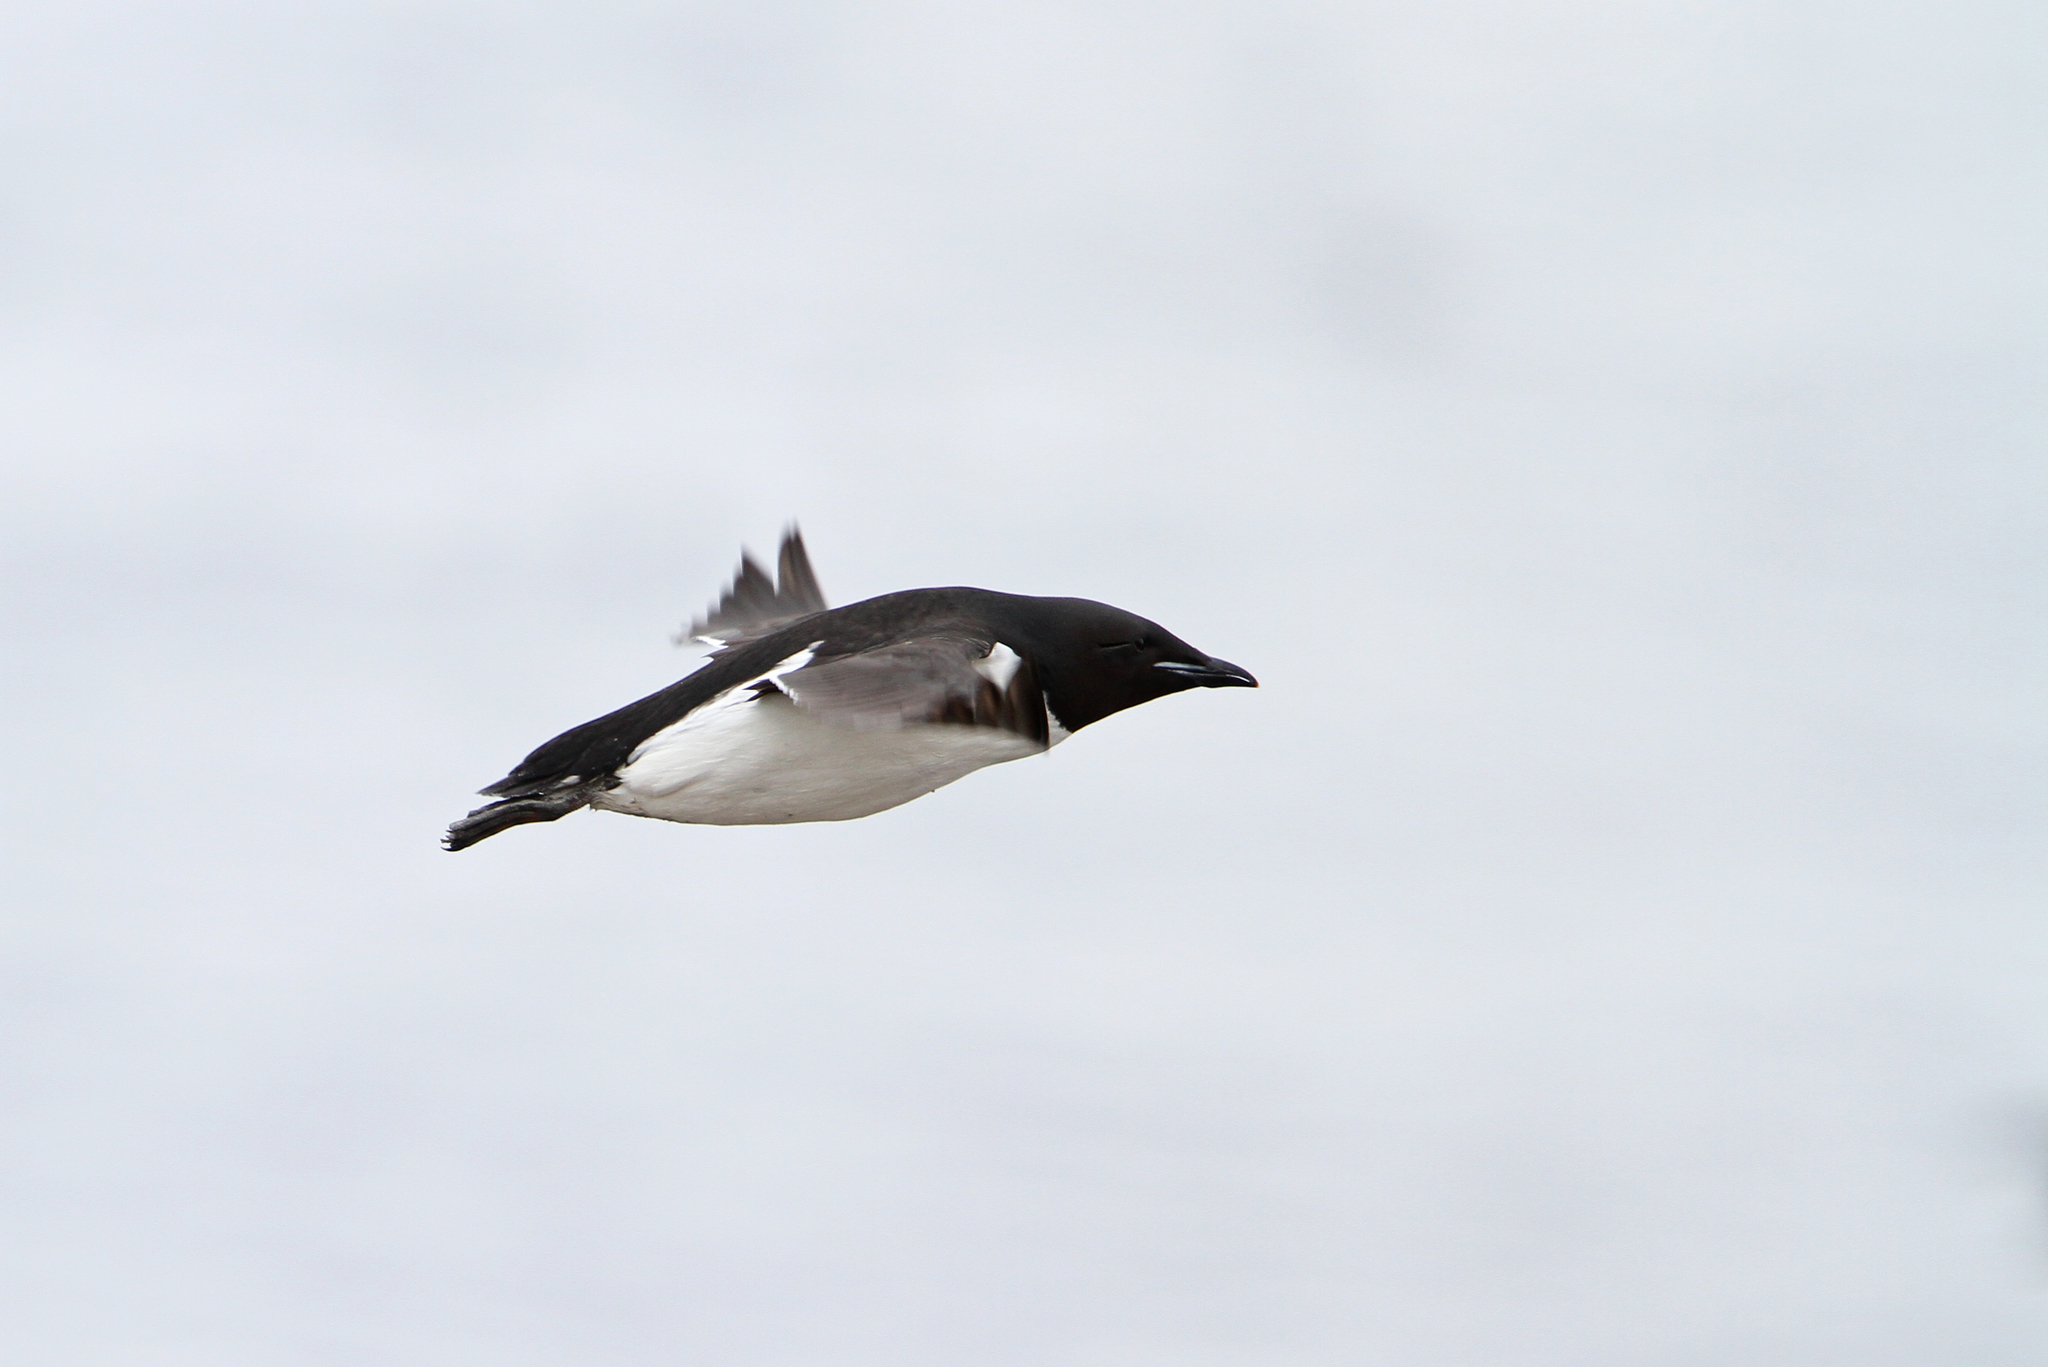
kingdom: Animalia
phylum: Chordata
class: Aves
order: Charadriiformes
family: Alcidae
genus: Uria
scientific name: Uria lomvia
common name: Thick-billed murre
